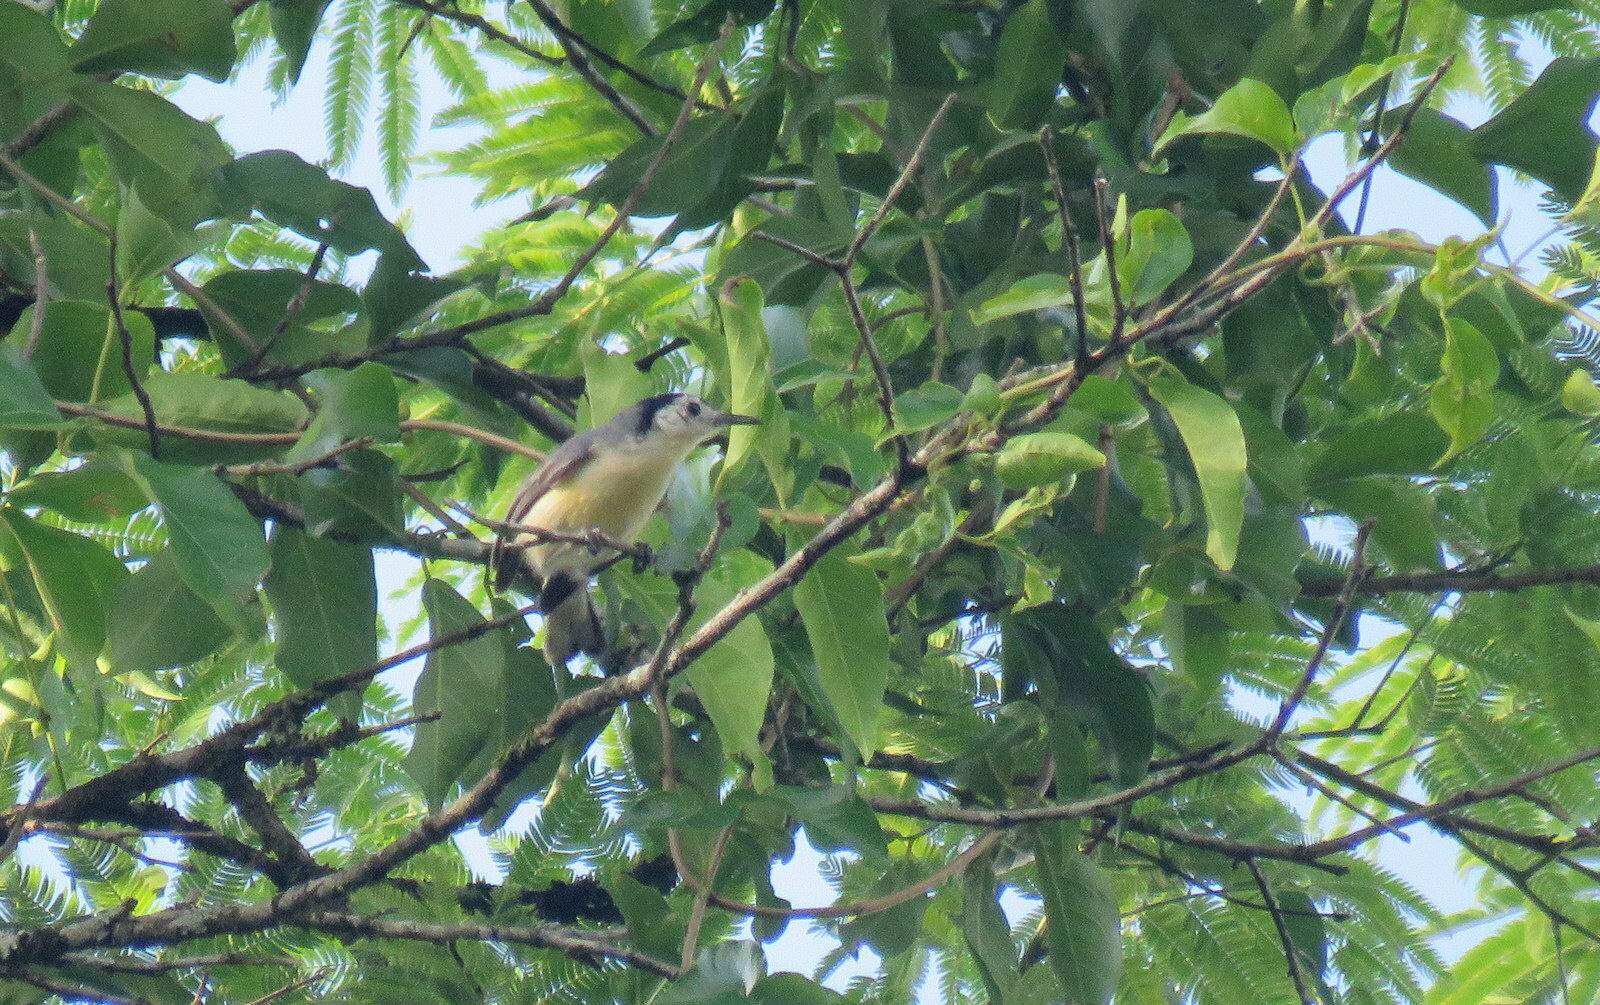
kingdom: Animalia
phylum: Chordata
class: Aves
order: Passeriformes
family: Polioptilidae
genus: Polioptila
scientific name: Polioptila lactea
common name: Creamy-bellied gnatcatcher
